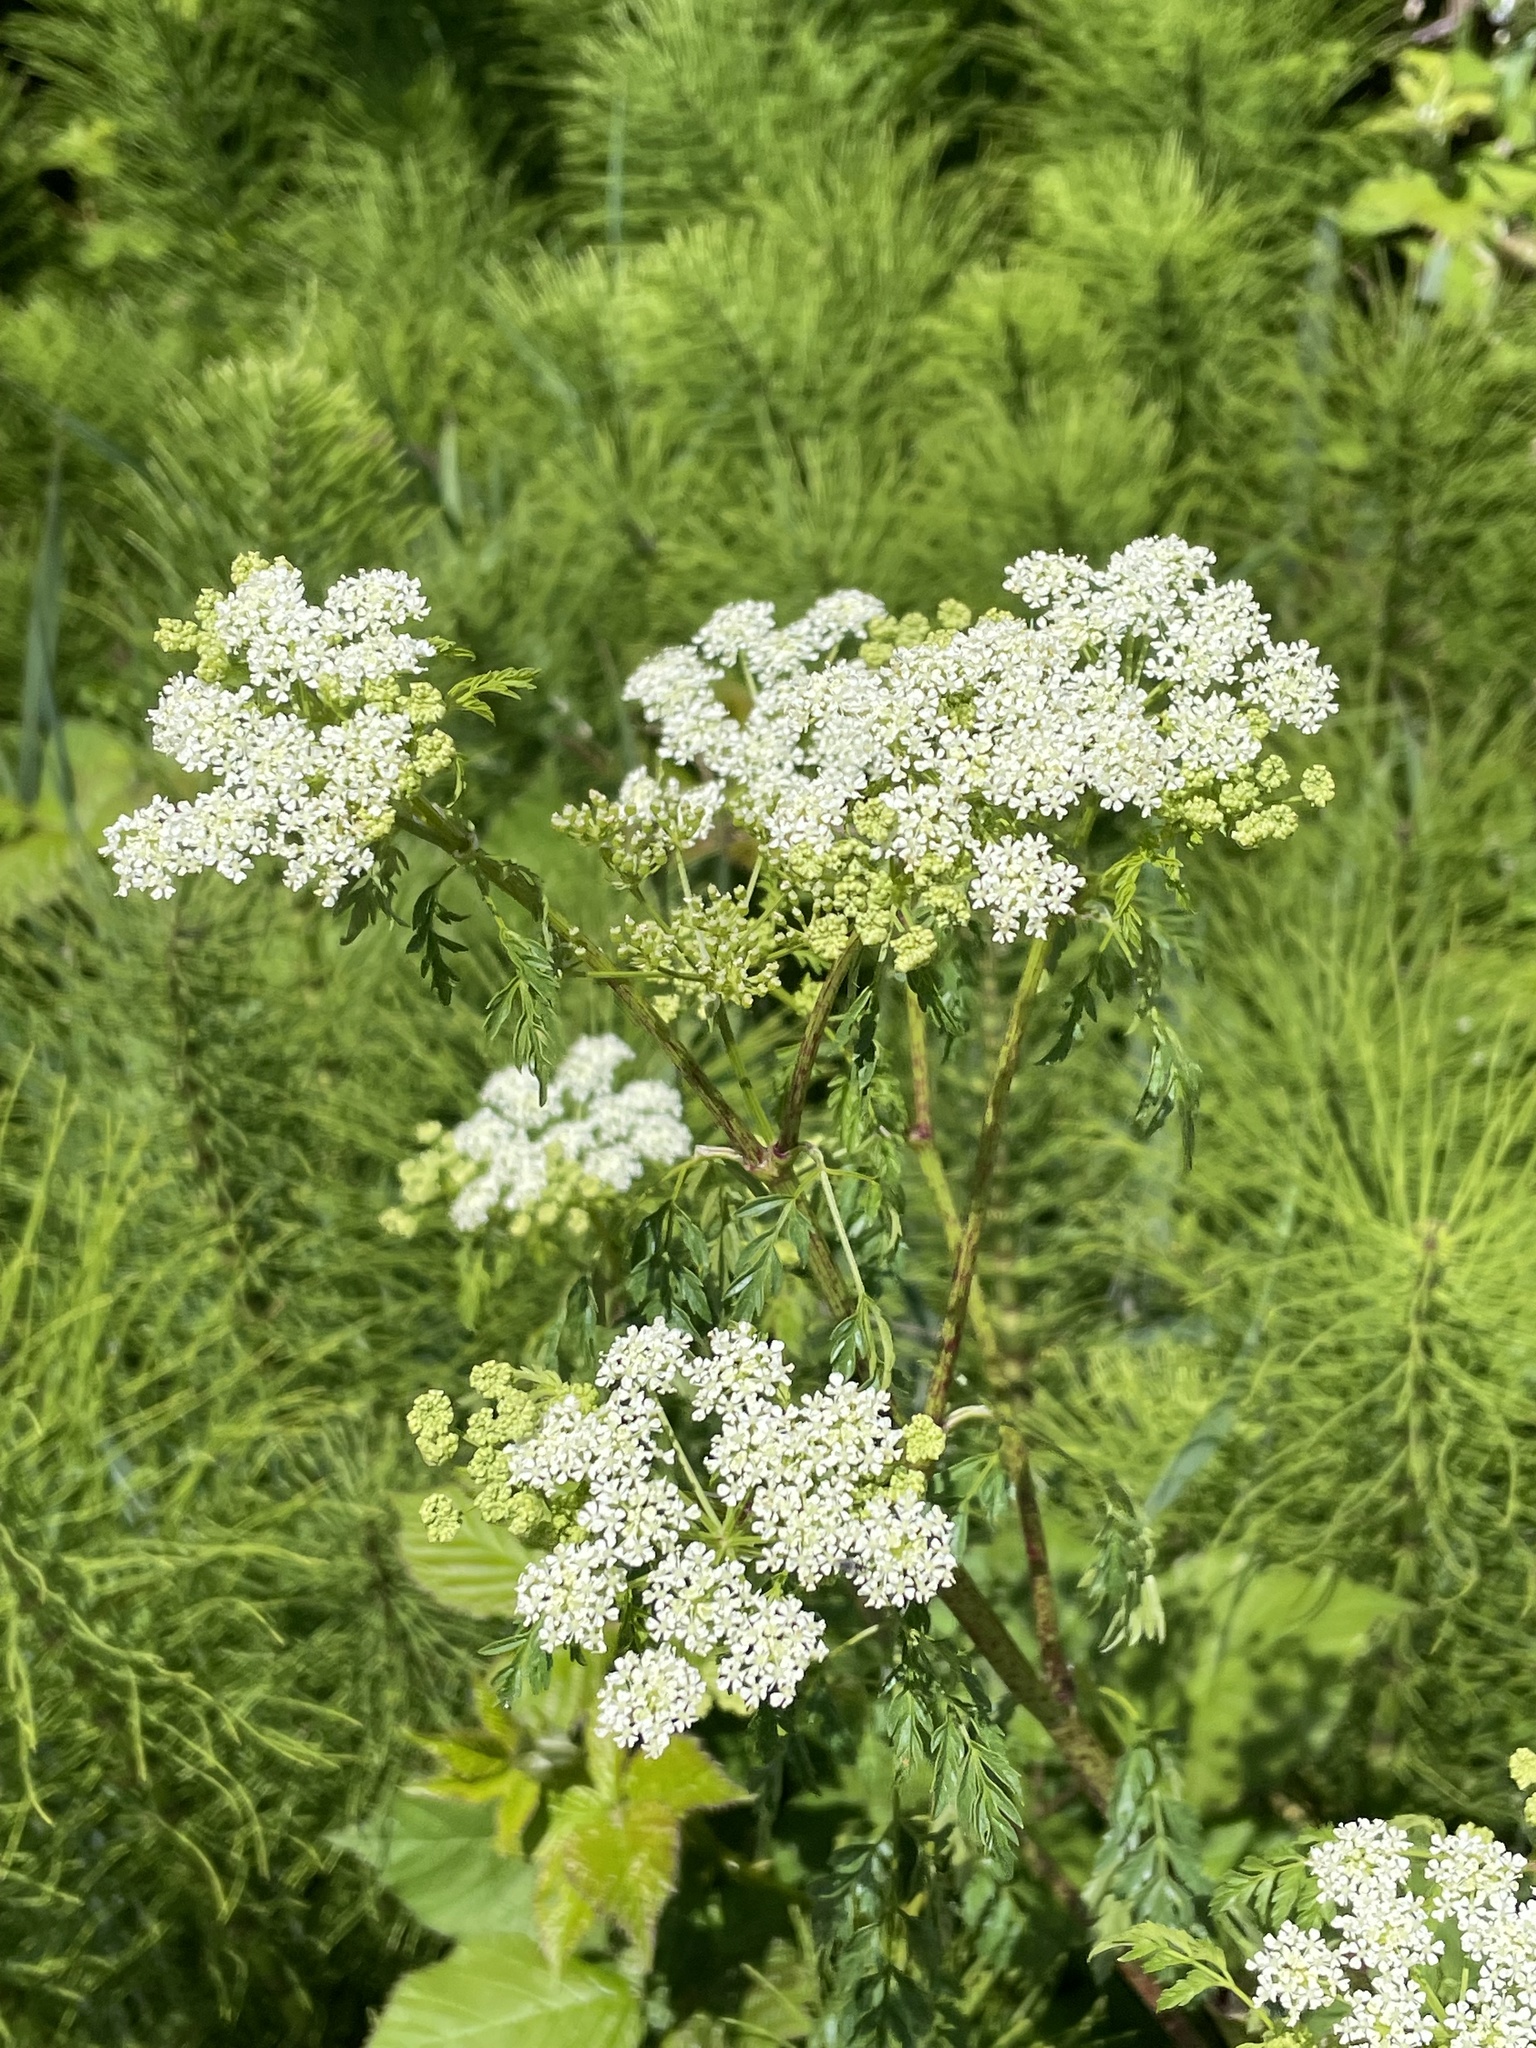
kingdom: Plantae
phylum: Tracheophyta
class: Magnoliopsida
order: Apiales
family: Apiaceae
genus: Conium
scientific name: Conium maculatum
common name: Hemlock
